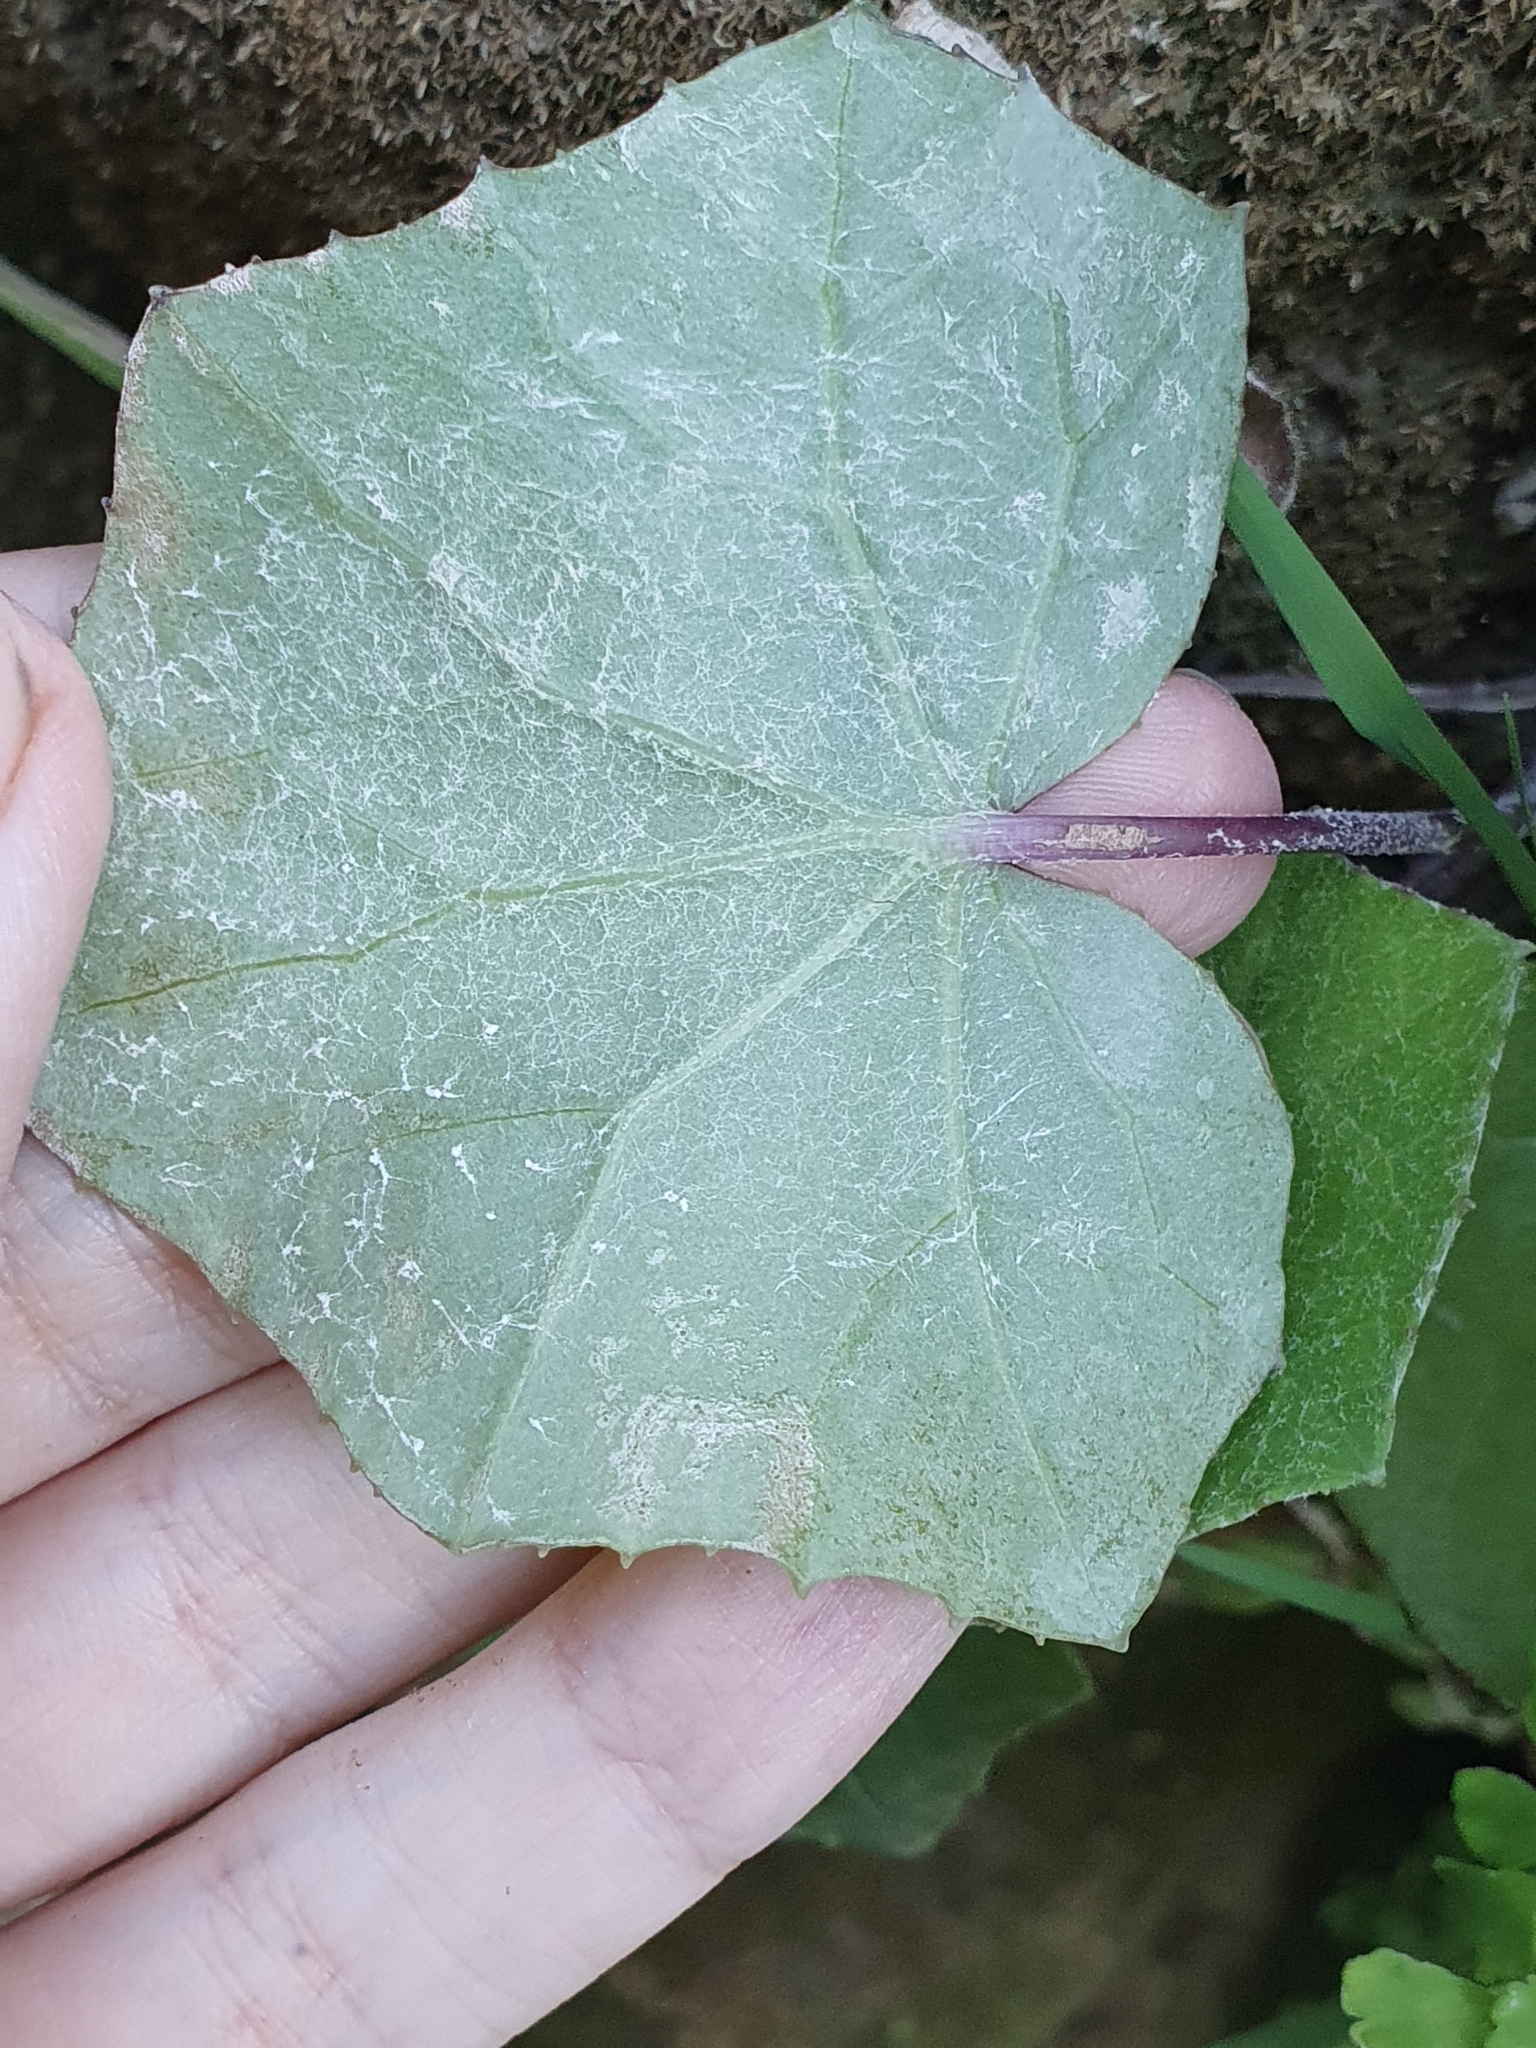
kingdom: Plantae
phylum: Tracheophyta
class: Magnoliopsida
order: Asterales
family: Asteraceae
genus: Tussilago
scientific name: Tussilago farfara
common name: Coltsfoot
